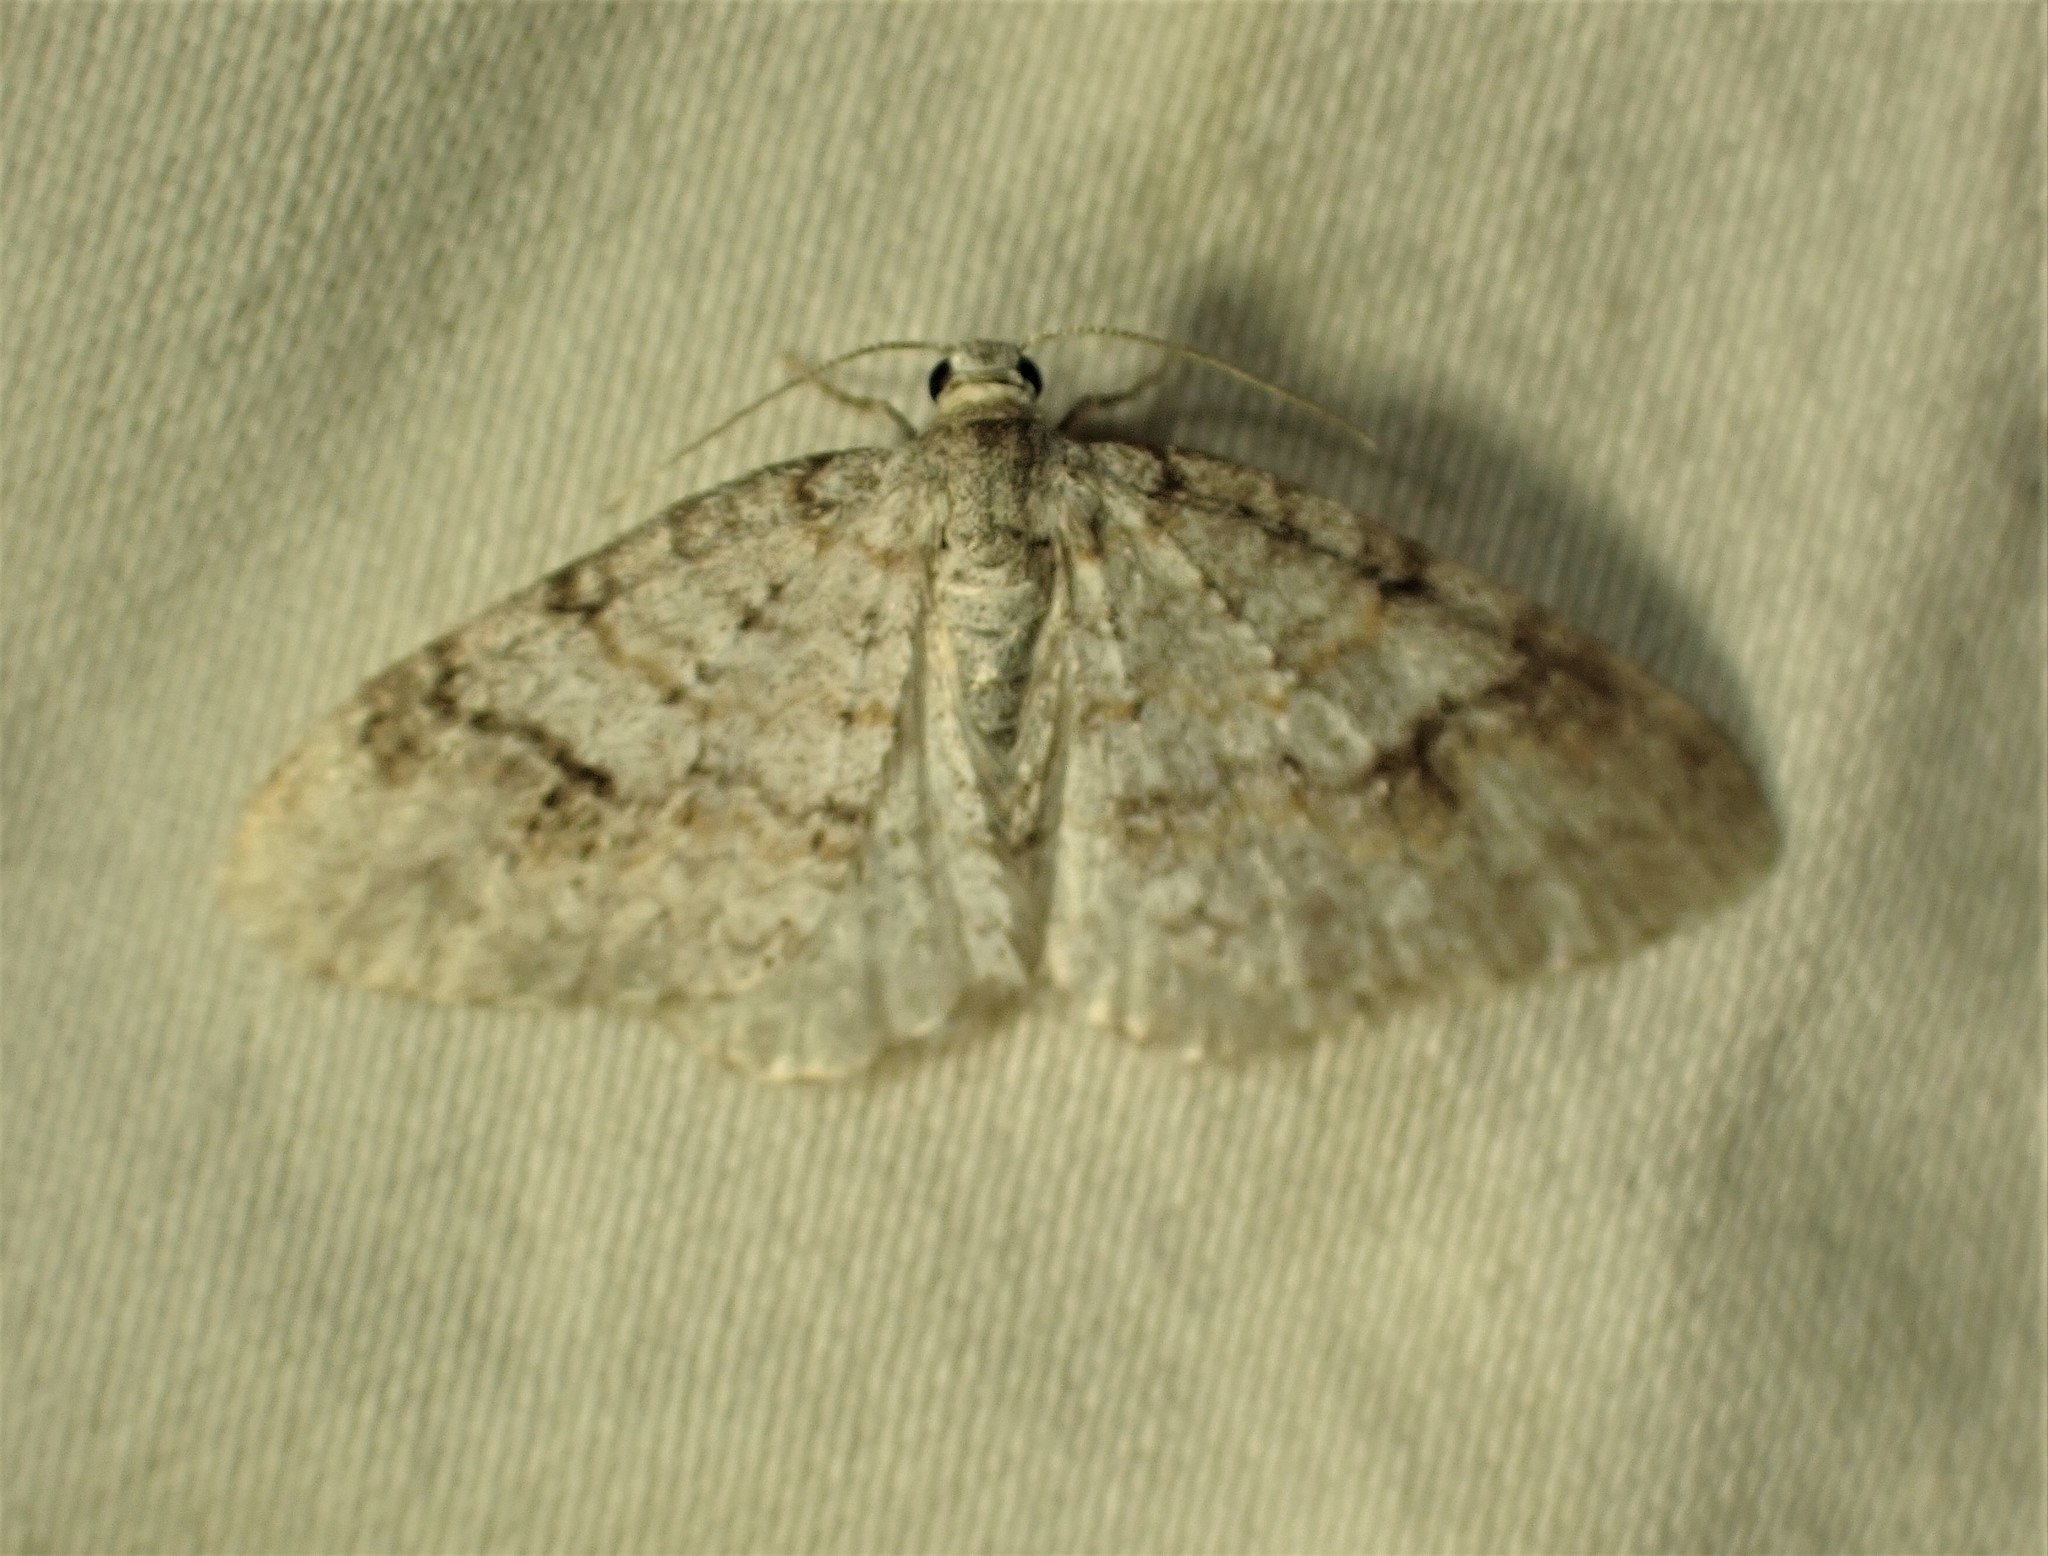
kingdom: Animalia
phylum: Arthropoda
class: Insecta
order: Lepidoptera
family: Geometridae
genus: Venusia
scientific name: Venusia comptaria
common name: Brown-shaded carpet
